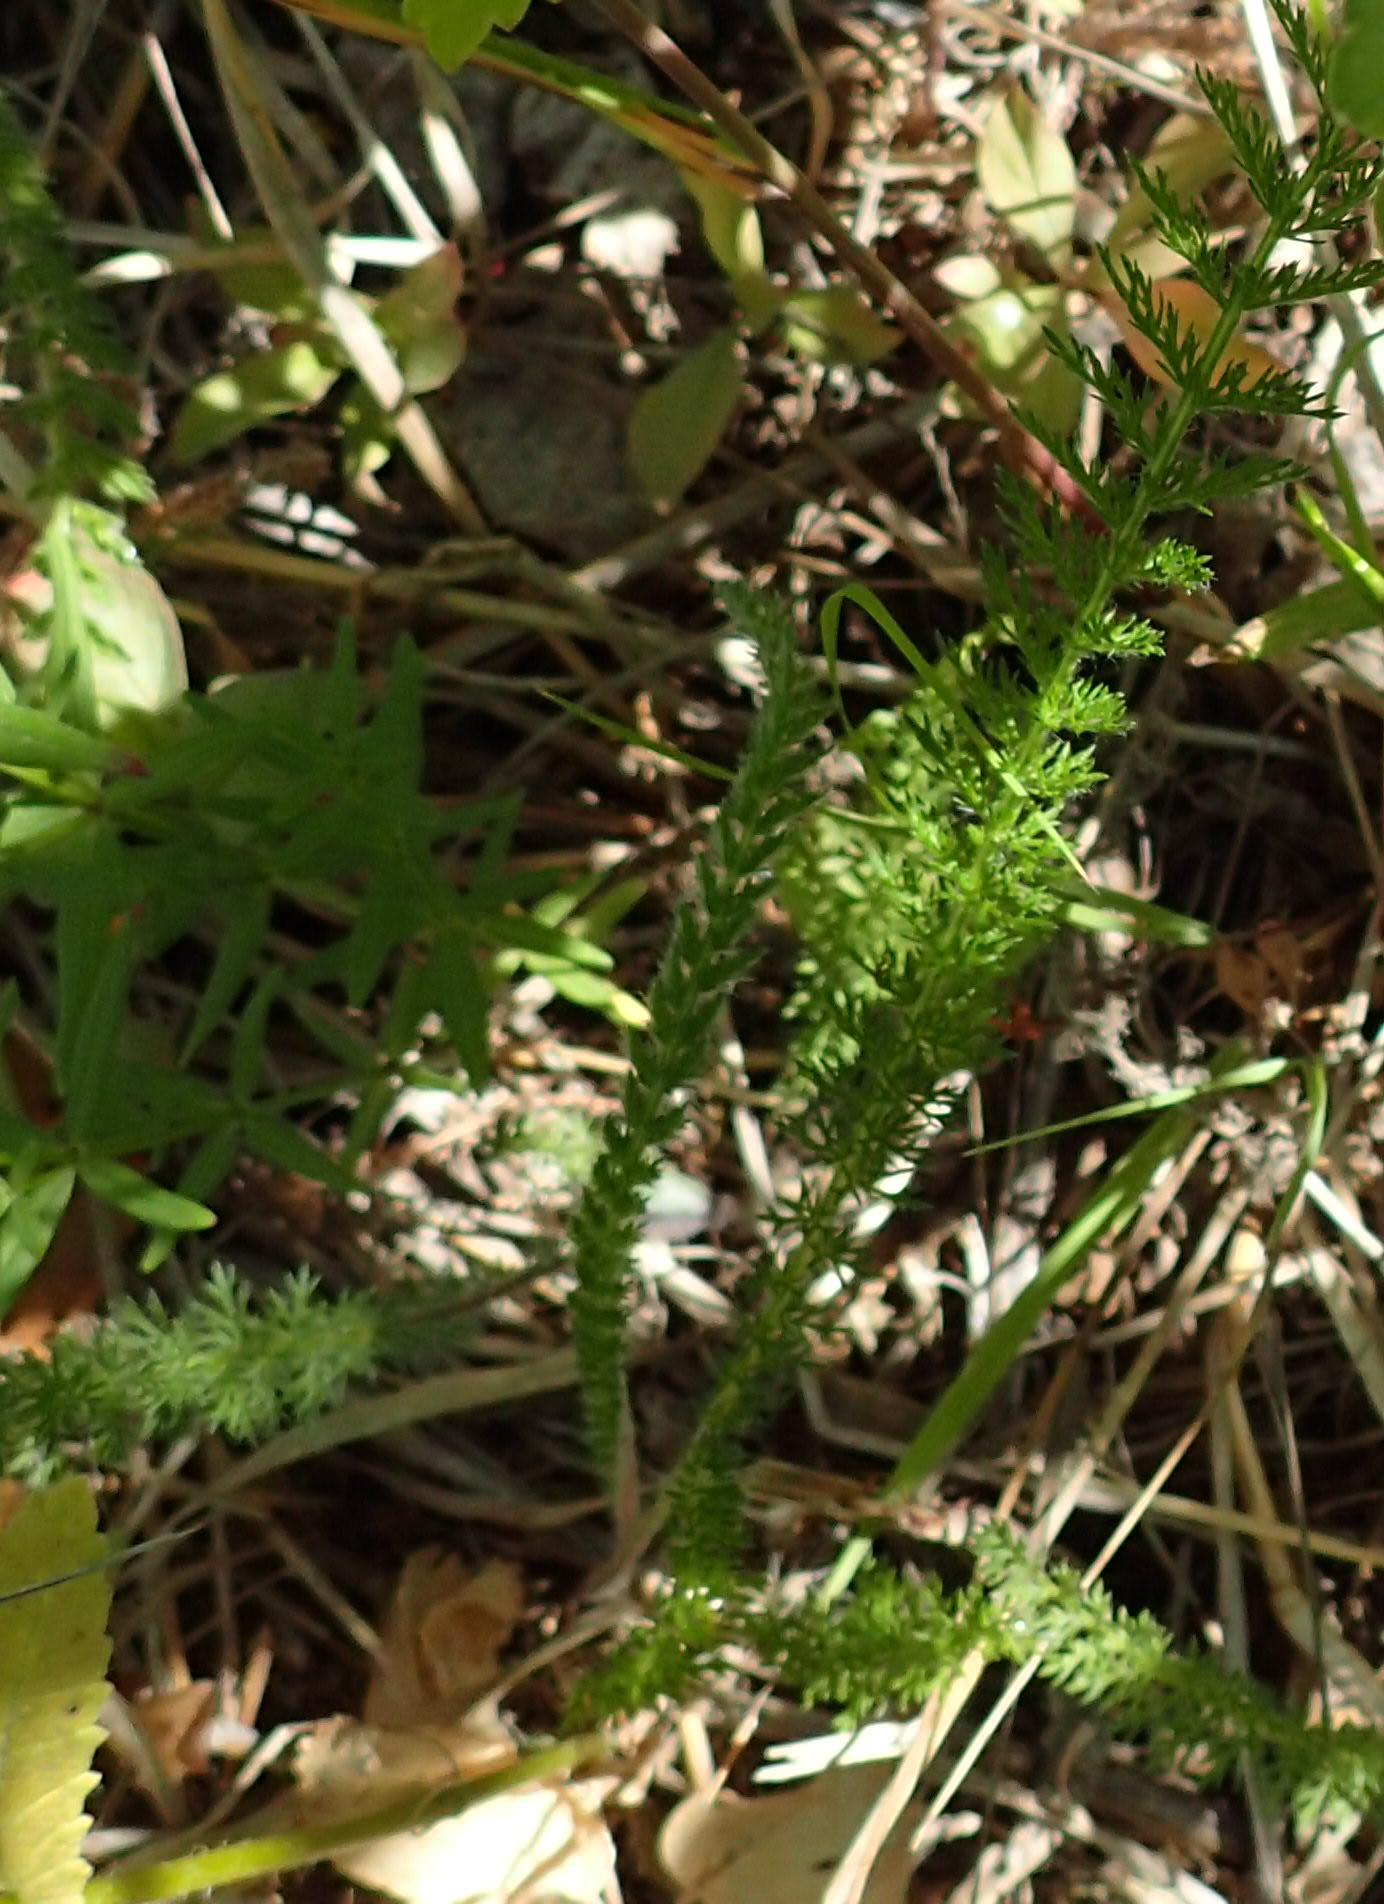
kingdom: Plantae
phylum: Tracheophyta
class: Magnoliopsida
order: Asterales
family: Asteraceae
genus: Achillea
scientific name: Achillea millefolium
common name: Yarrow
